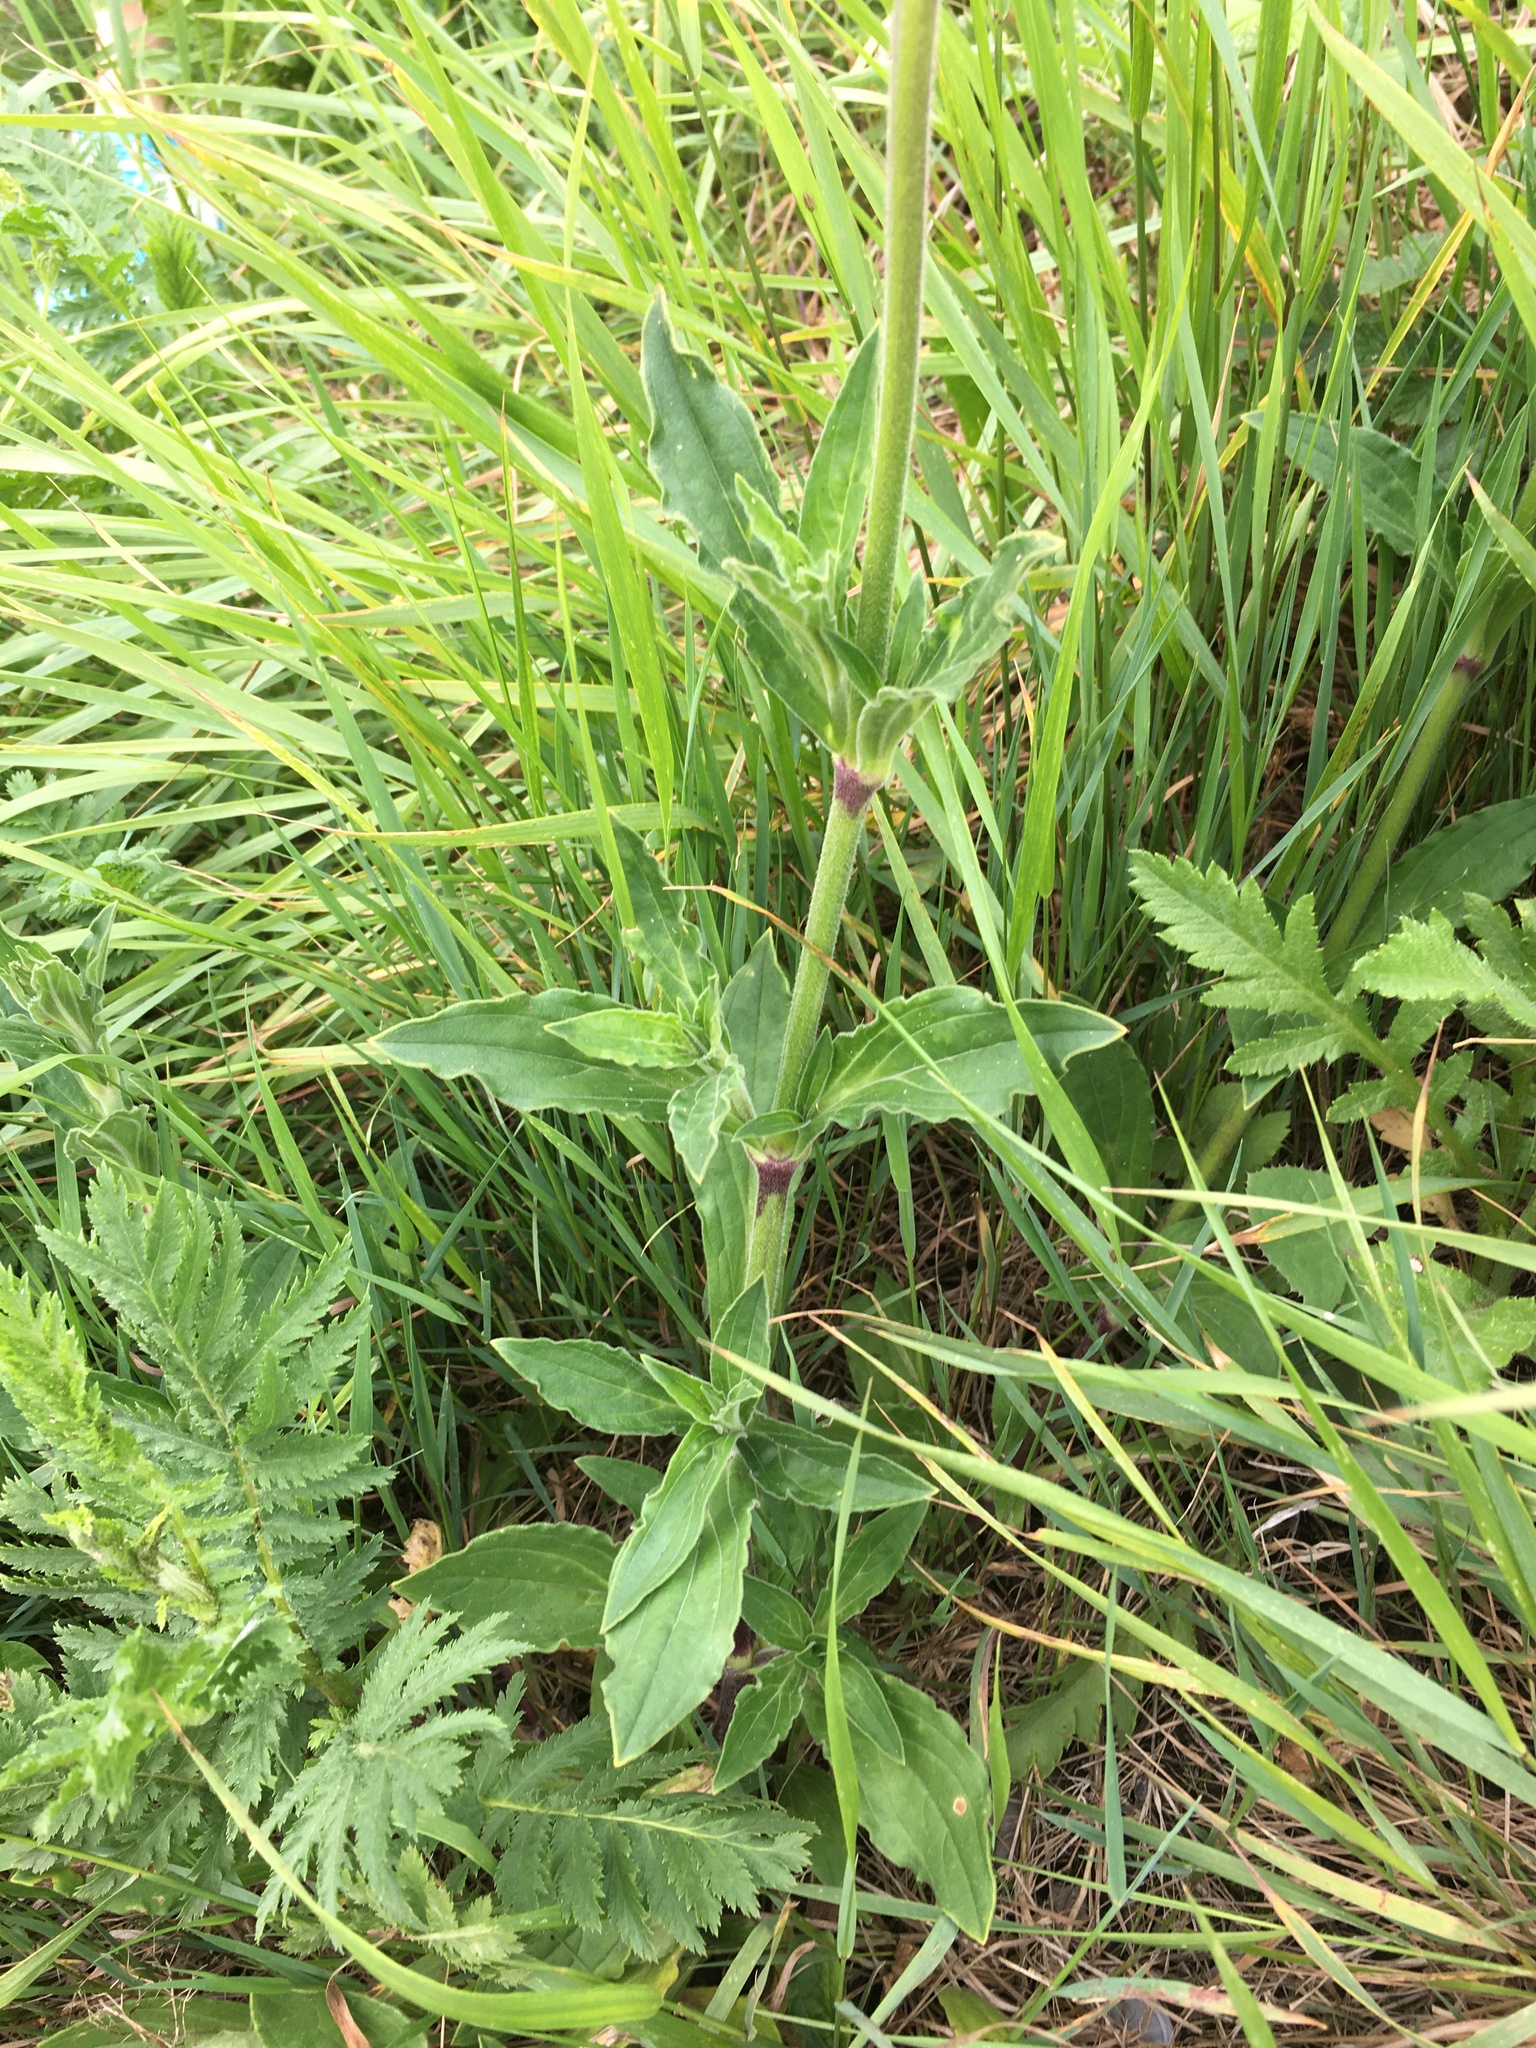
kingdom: Plantae
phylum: Tracheophyta
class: Magnoliopsida
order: Caryophyllales
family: Caryophyllaceae
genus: Silene
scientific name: Silene latifolia
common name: White campion
